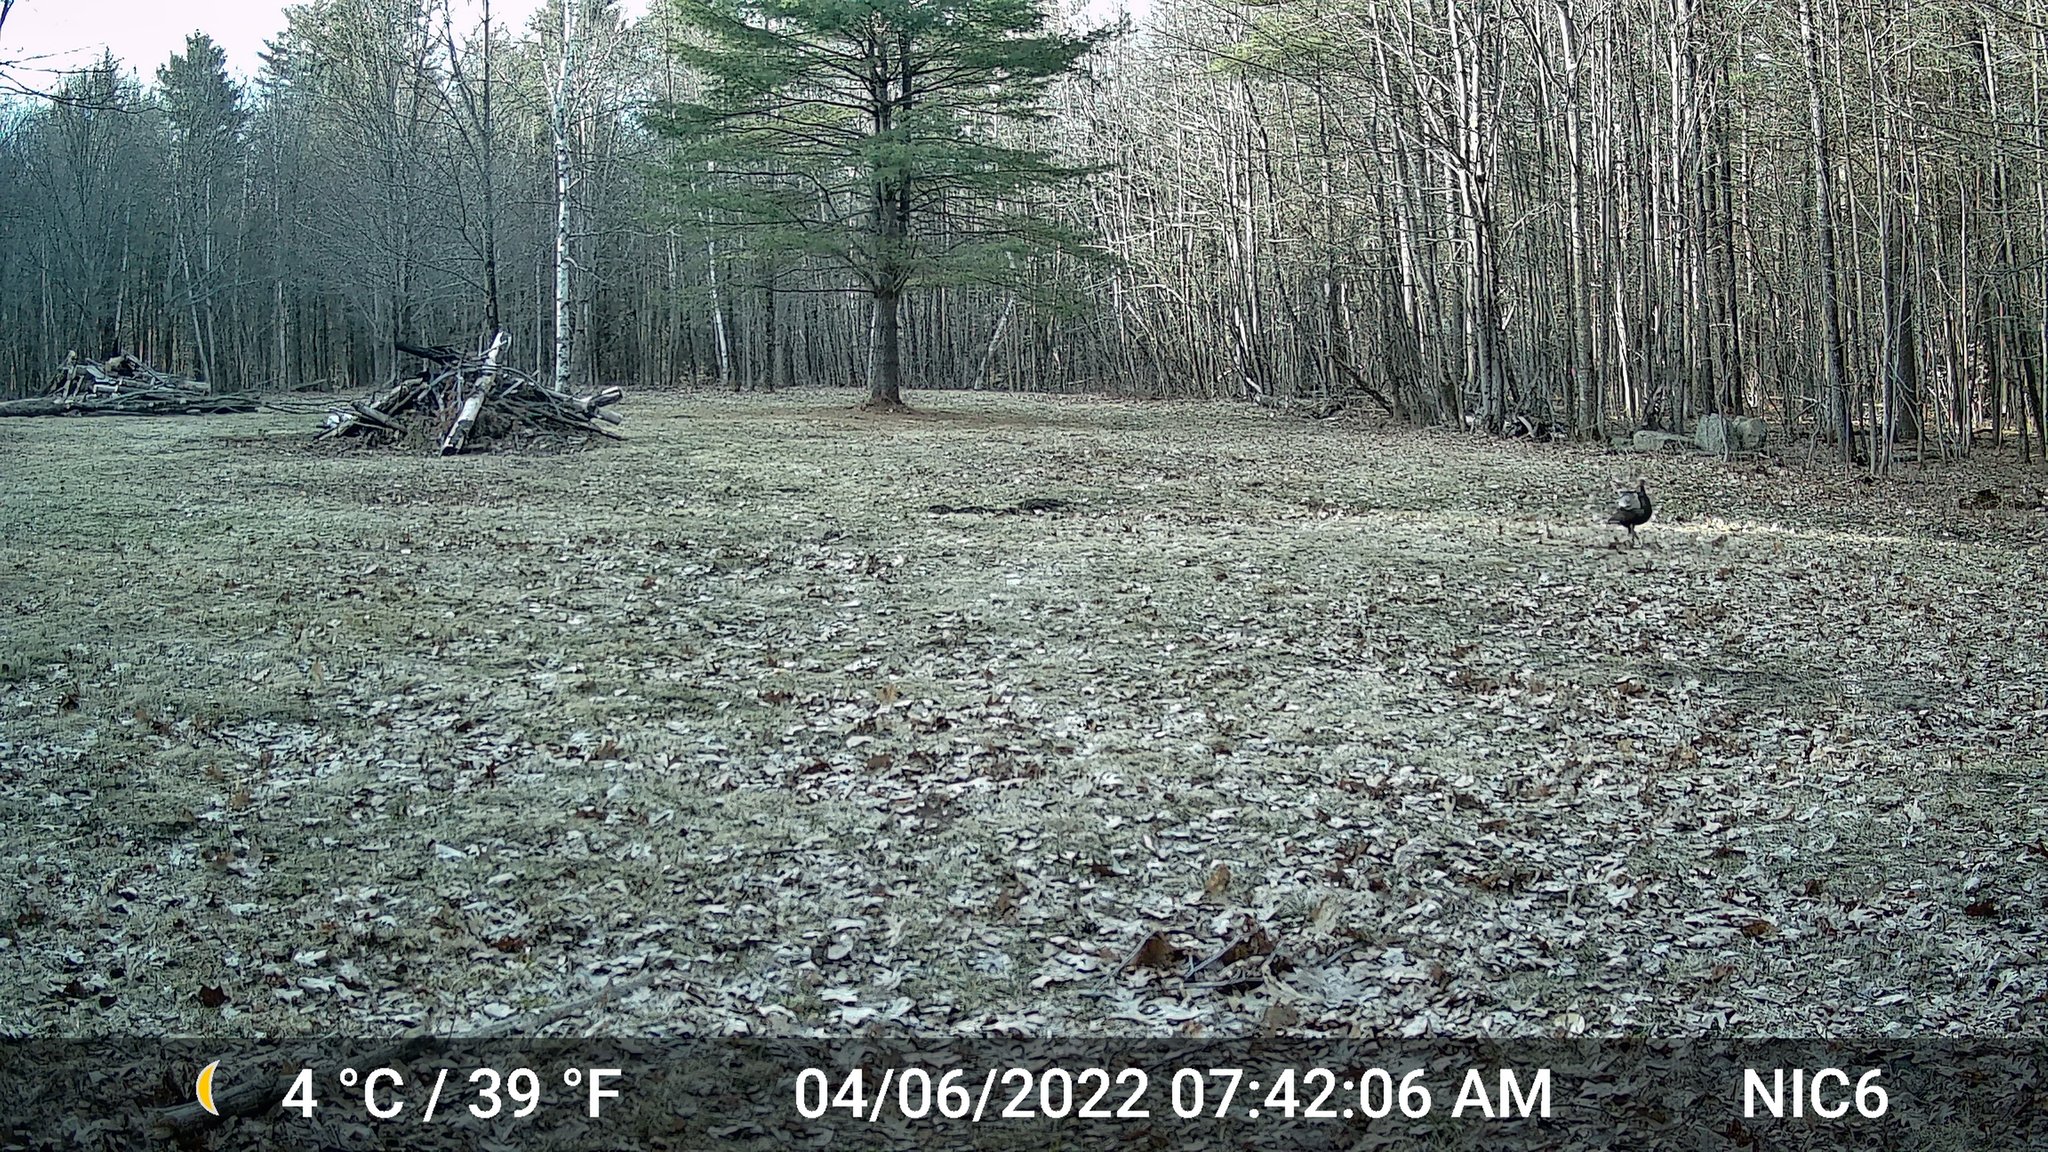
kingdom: Animalia
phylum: Chordata
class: Aves
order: Galliformes
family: Phasianidae
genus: Meleagris
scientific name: Meleagris gallopavo
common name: Wild turkey
